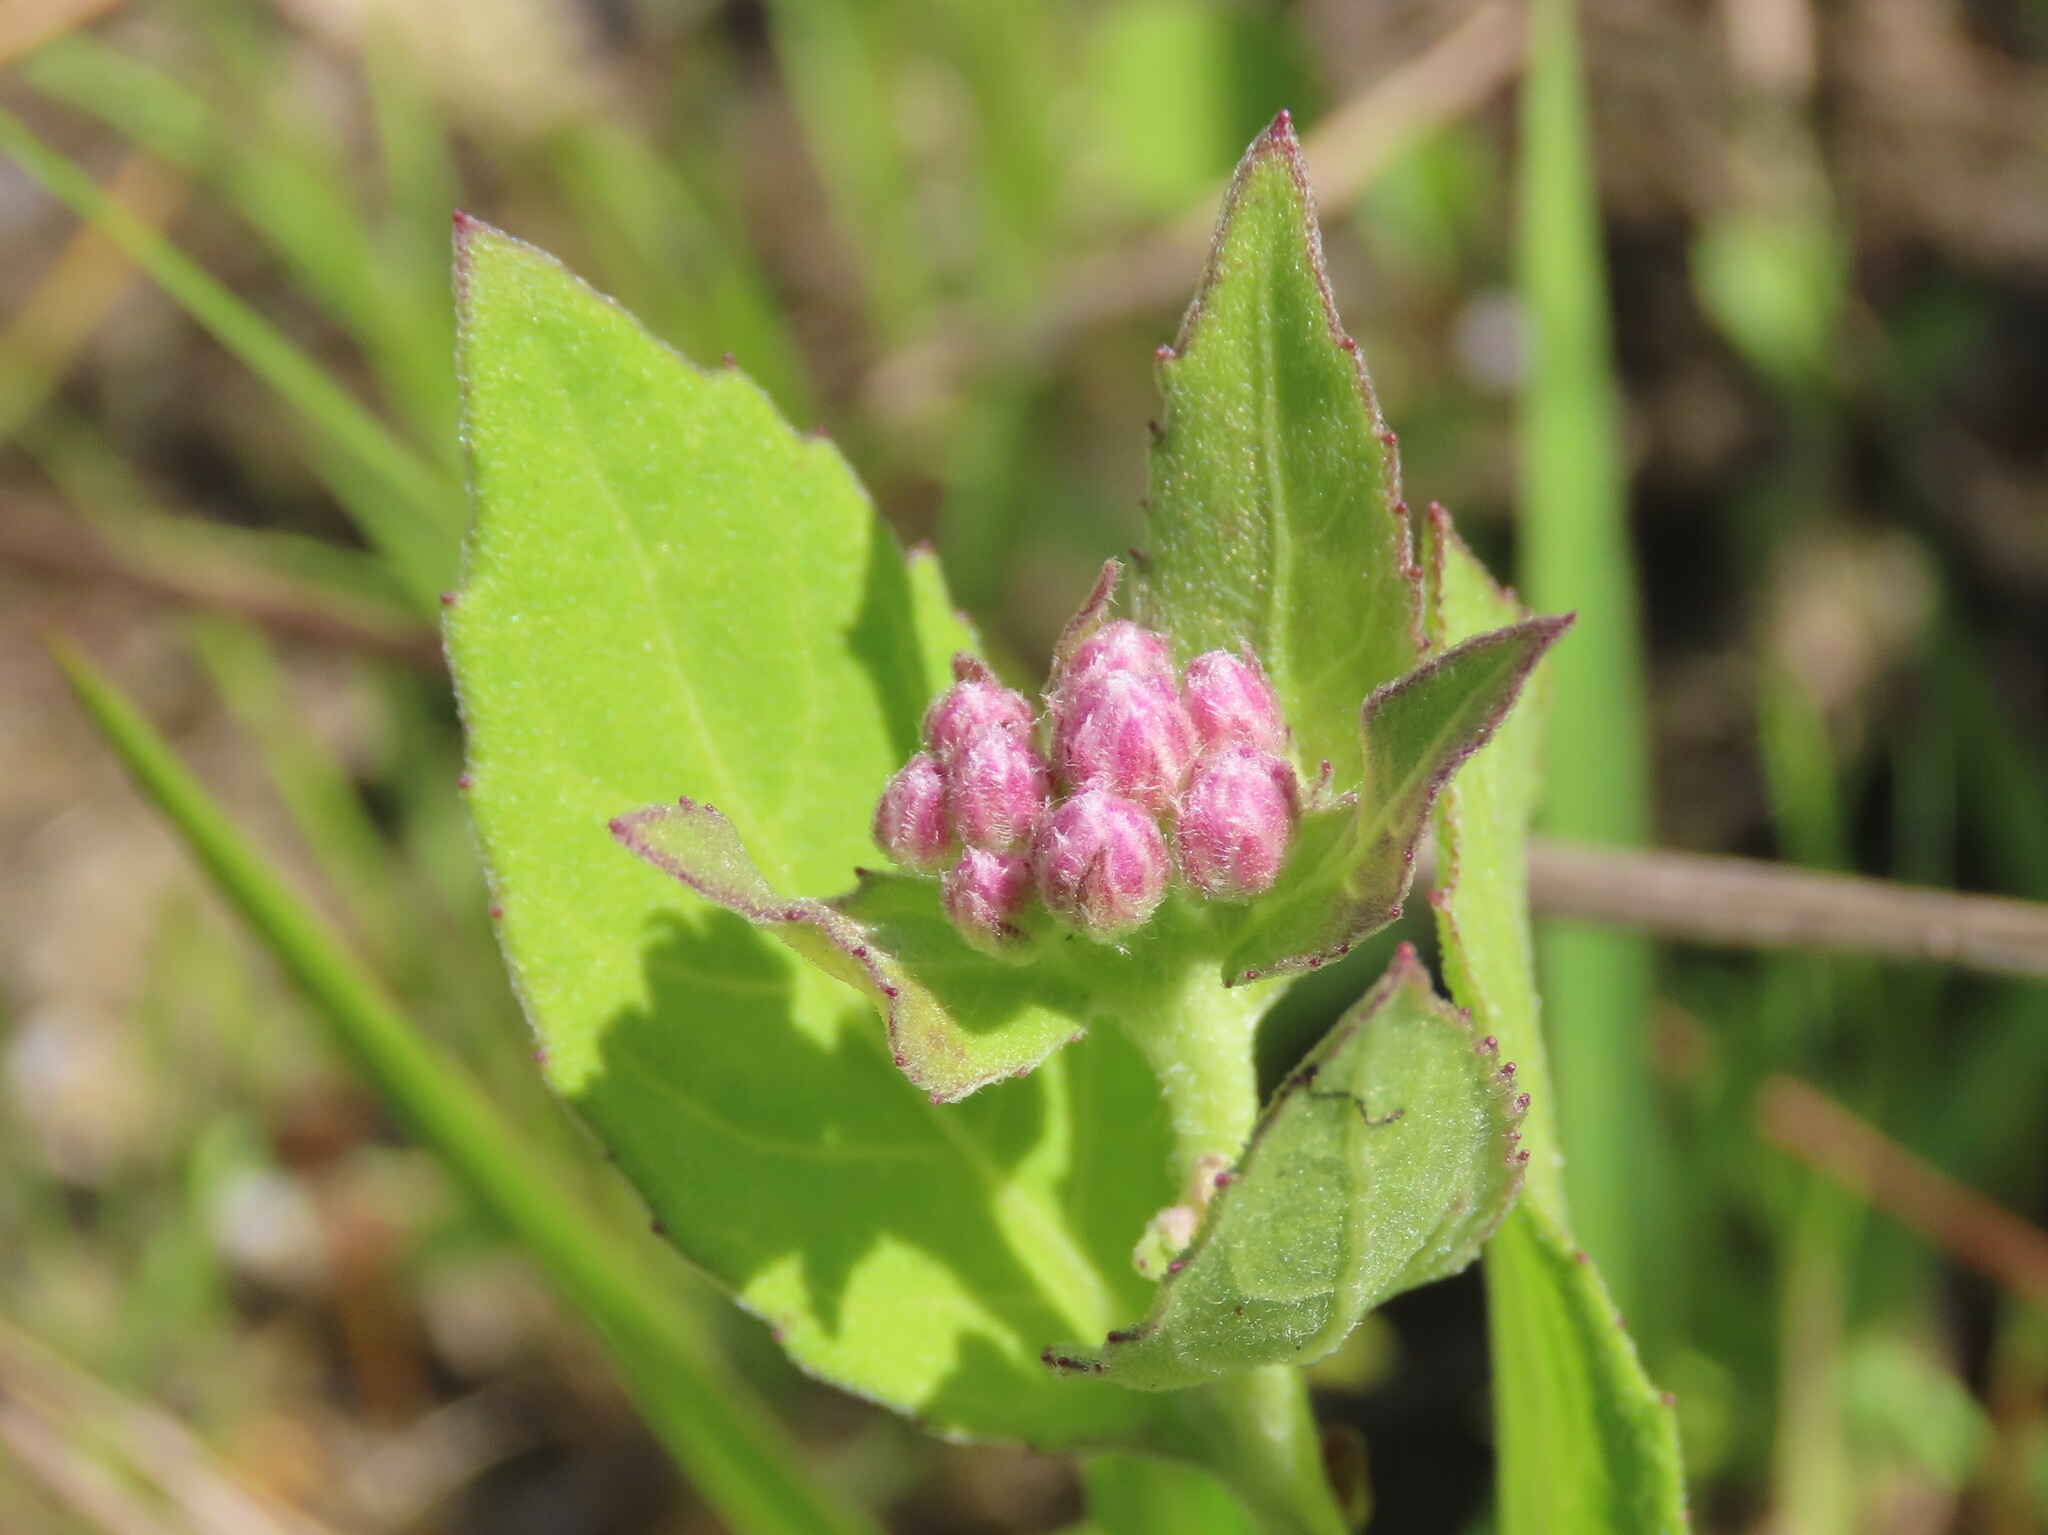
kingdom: Plantae
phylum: Tracheophyta
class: Magnoliopsida
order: Asterales
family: Asteraceae
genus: Pluchea
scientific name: Pluchea odorata
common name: Saltmarsh fleabane
